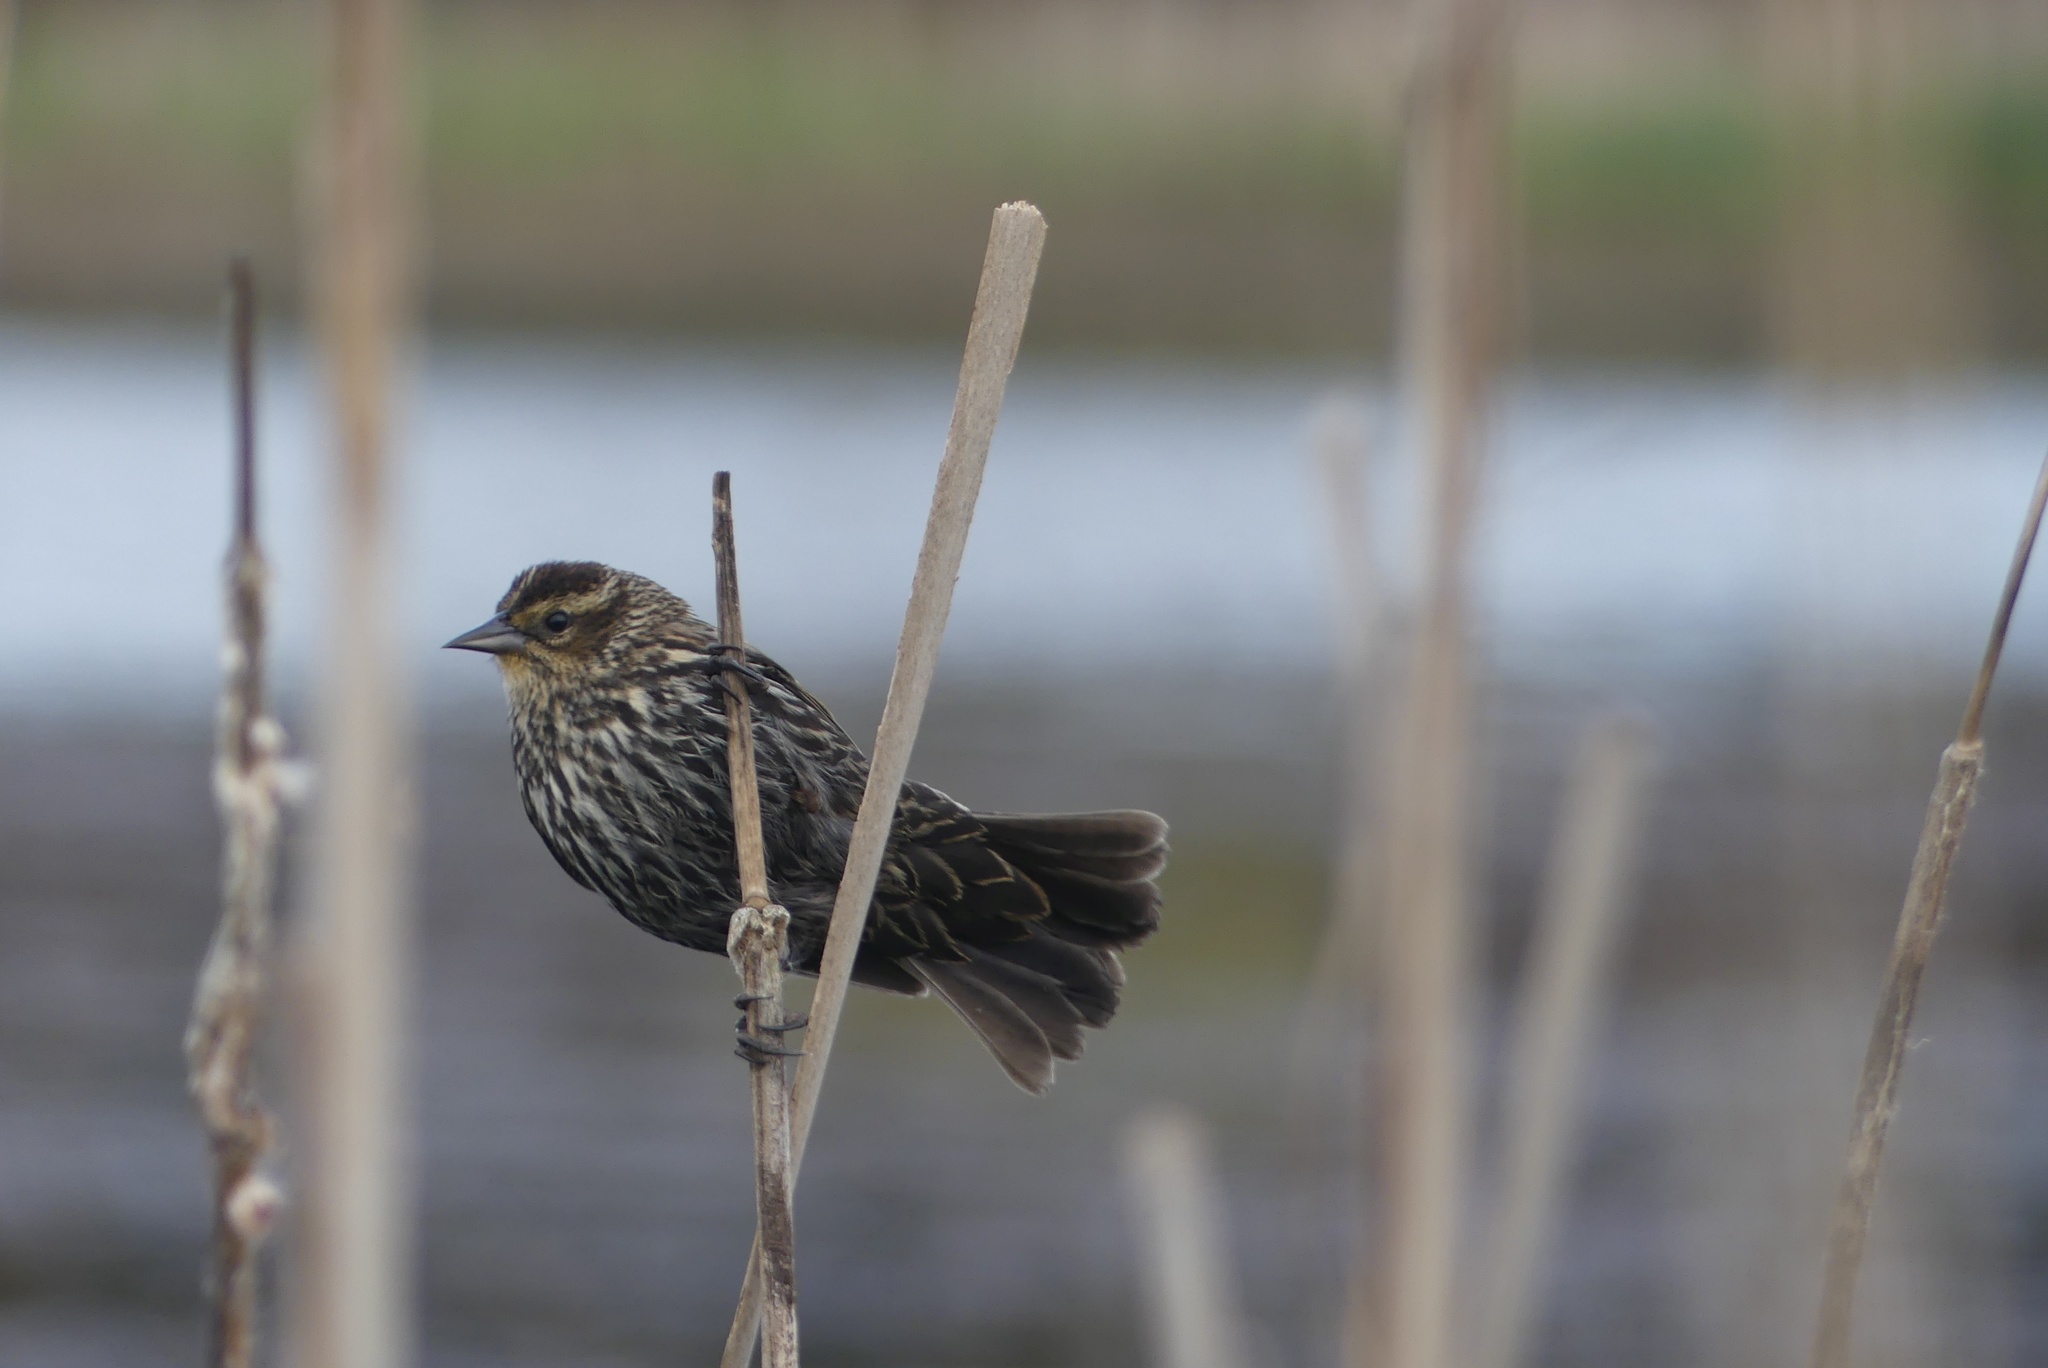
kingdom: Animalia
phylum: Chordata
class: Aves
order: Passeriformes
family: Icteridae
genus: Agelaius
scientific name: Agelaius phoeniceus
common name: Red-winged blackbird
